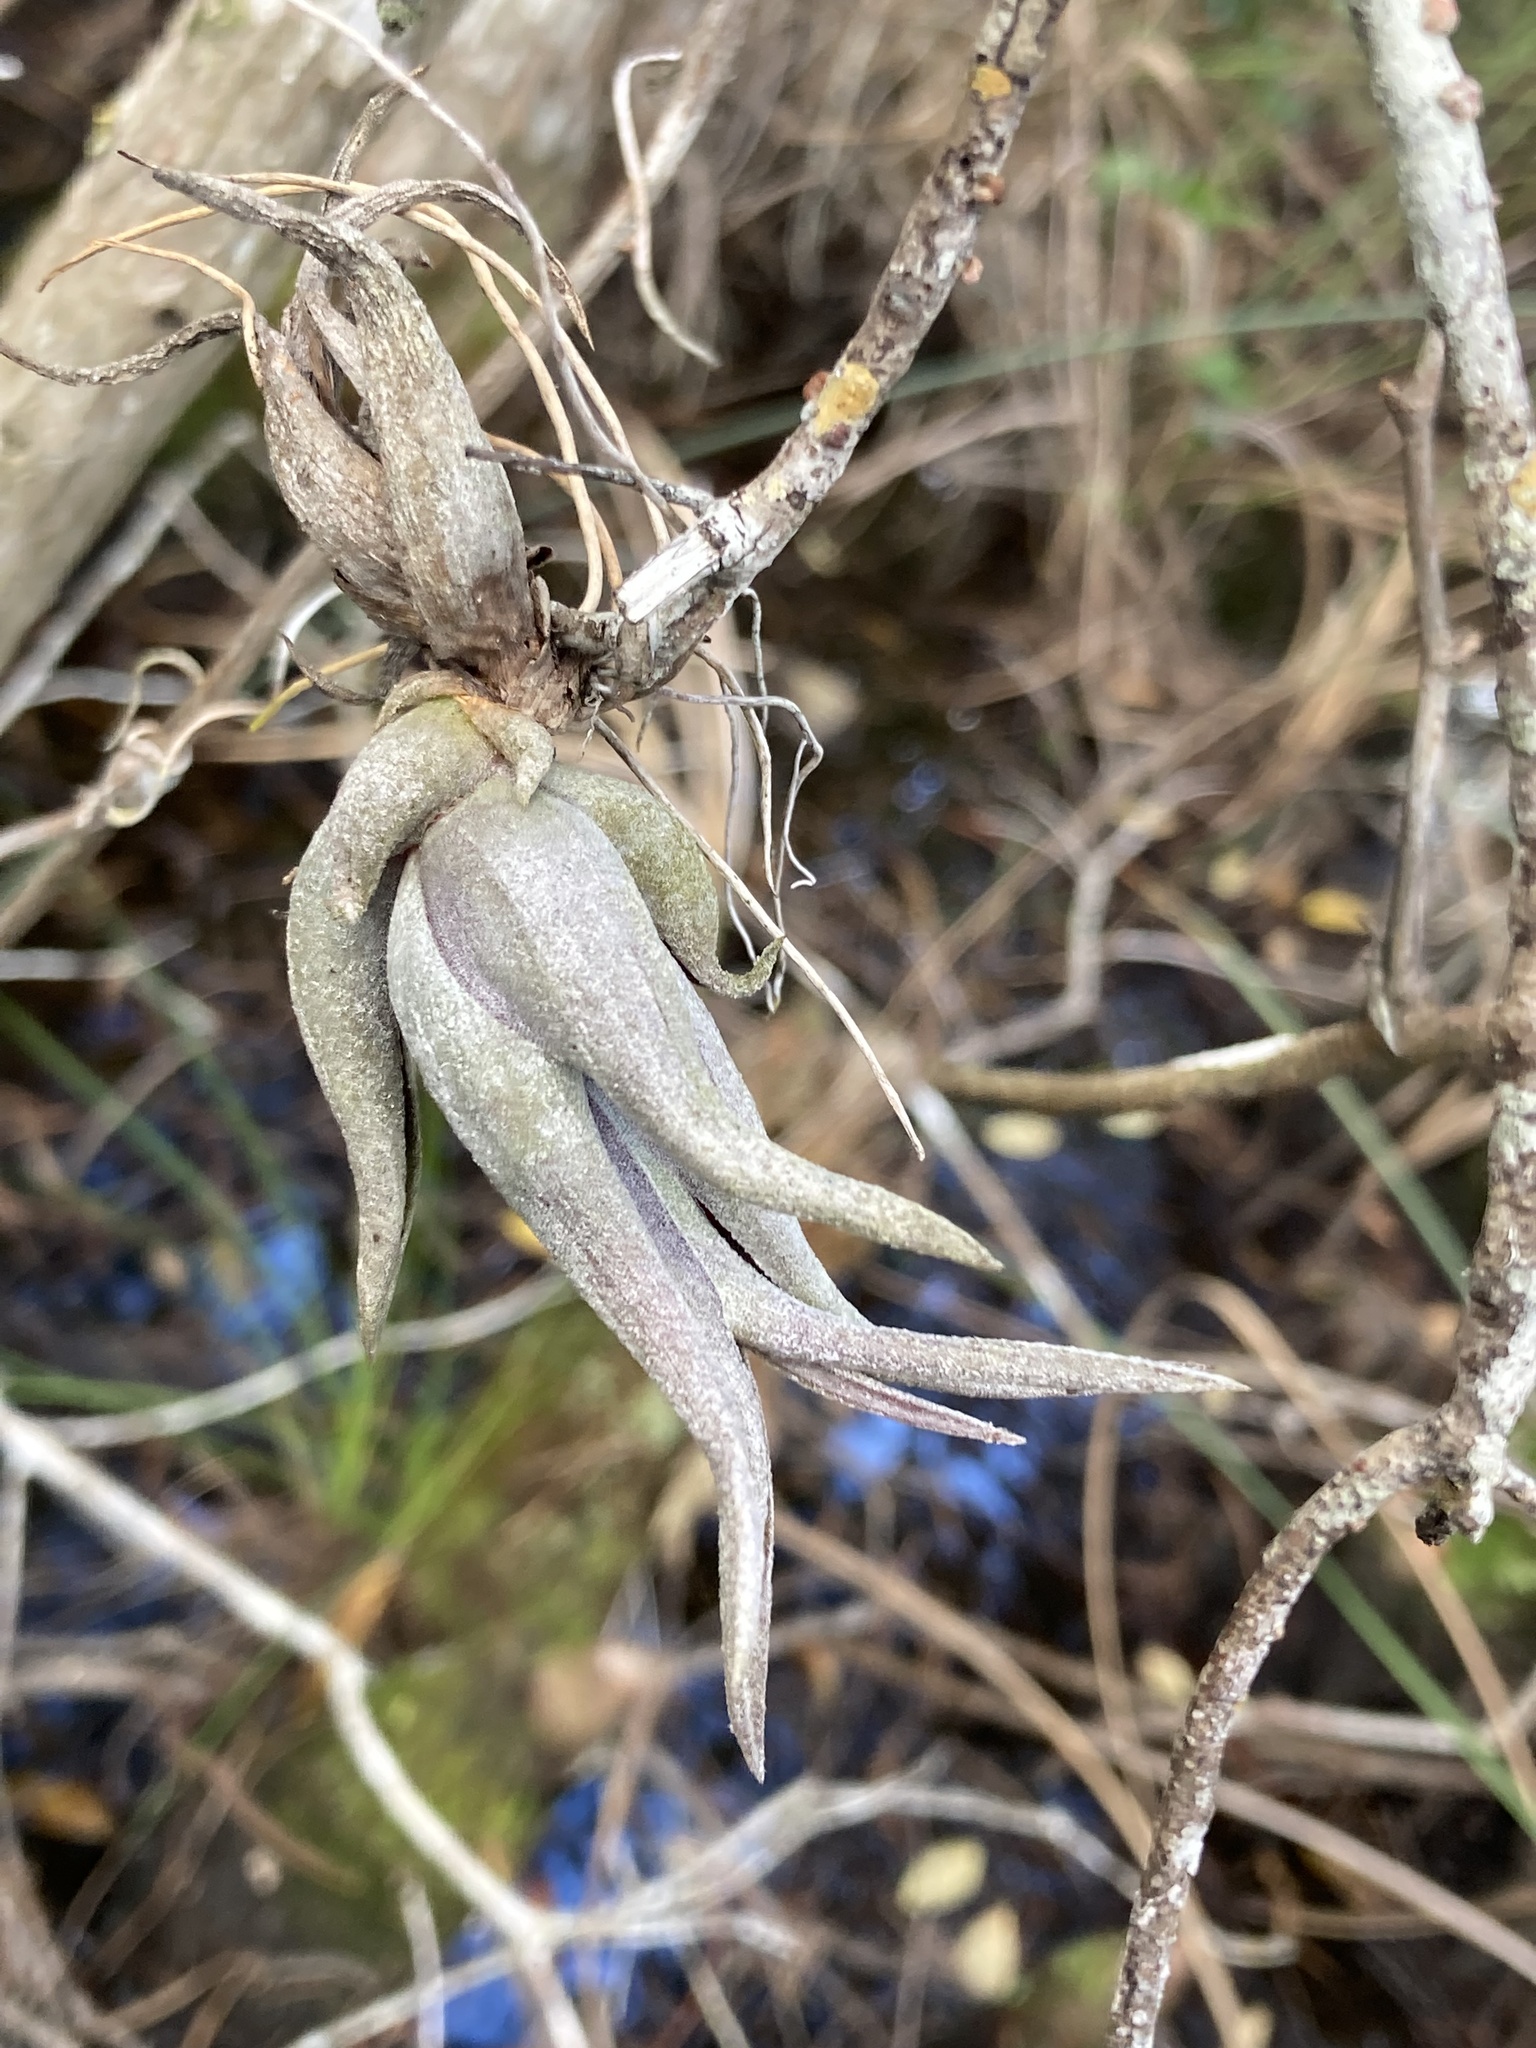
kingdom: Plantae
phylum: Tracheophyta
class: Liliopsida
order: Poales
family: Bromeliaceae
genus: Tillandsia
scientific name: Tillandsia paucifolia
